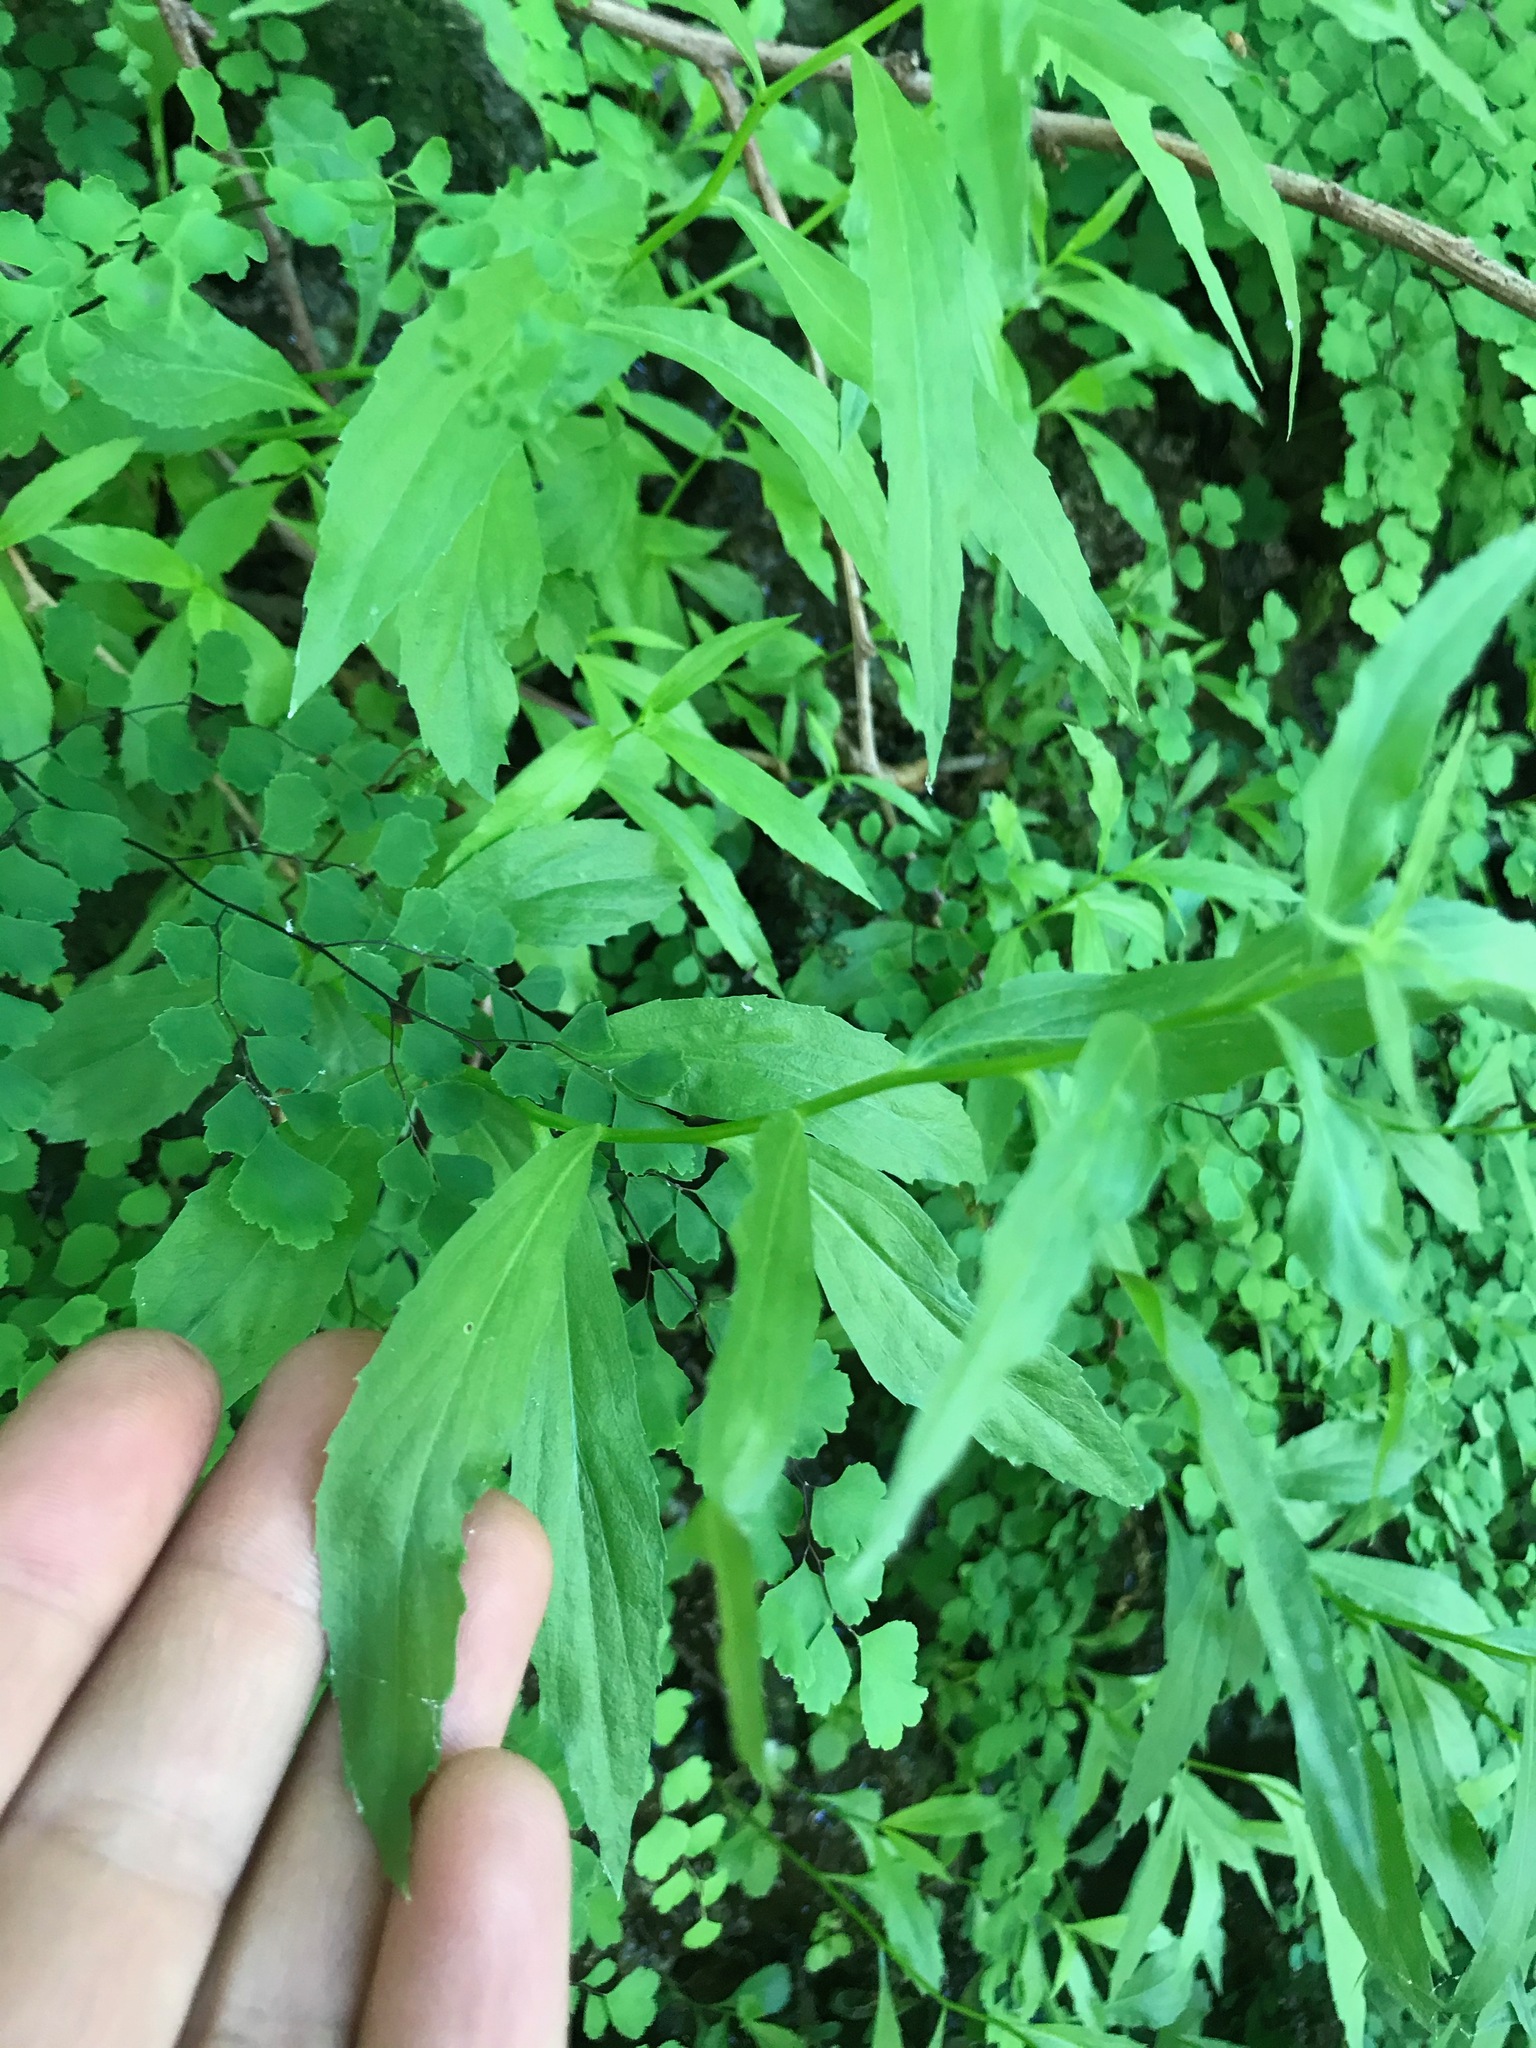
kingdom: Plantae
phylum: Tracheophyta
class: Magnoliopsida
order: Asterales
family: Campanulaceae
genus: Palmerella
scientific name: Palmerella debilis
